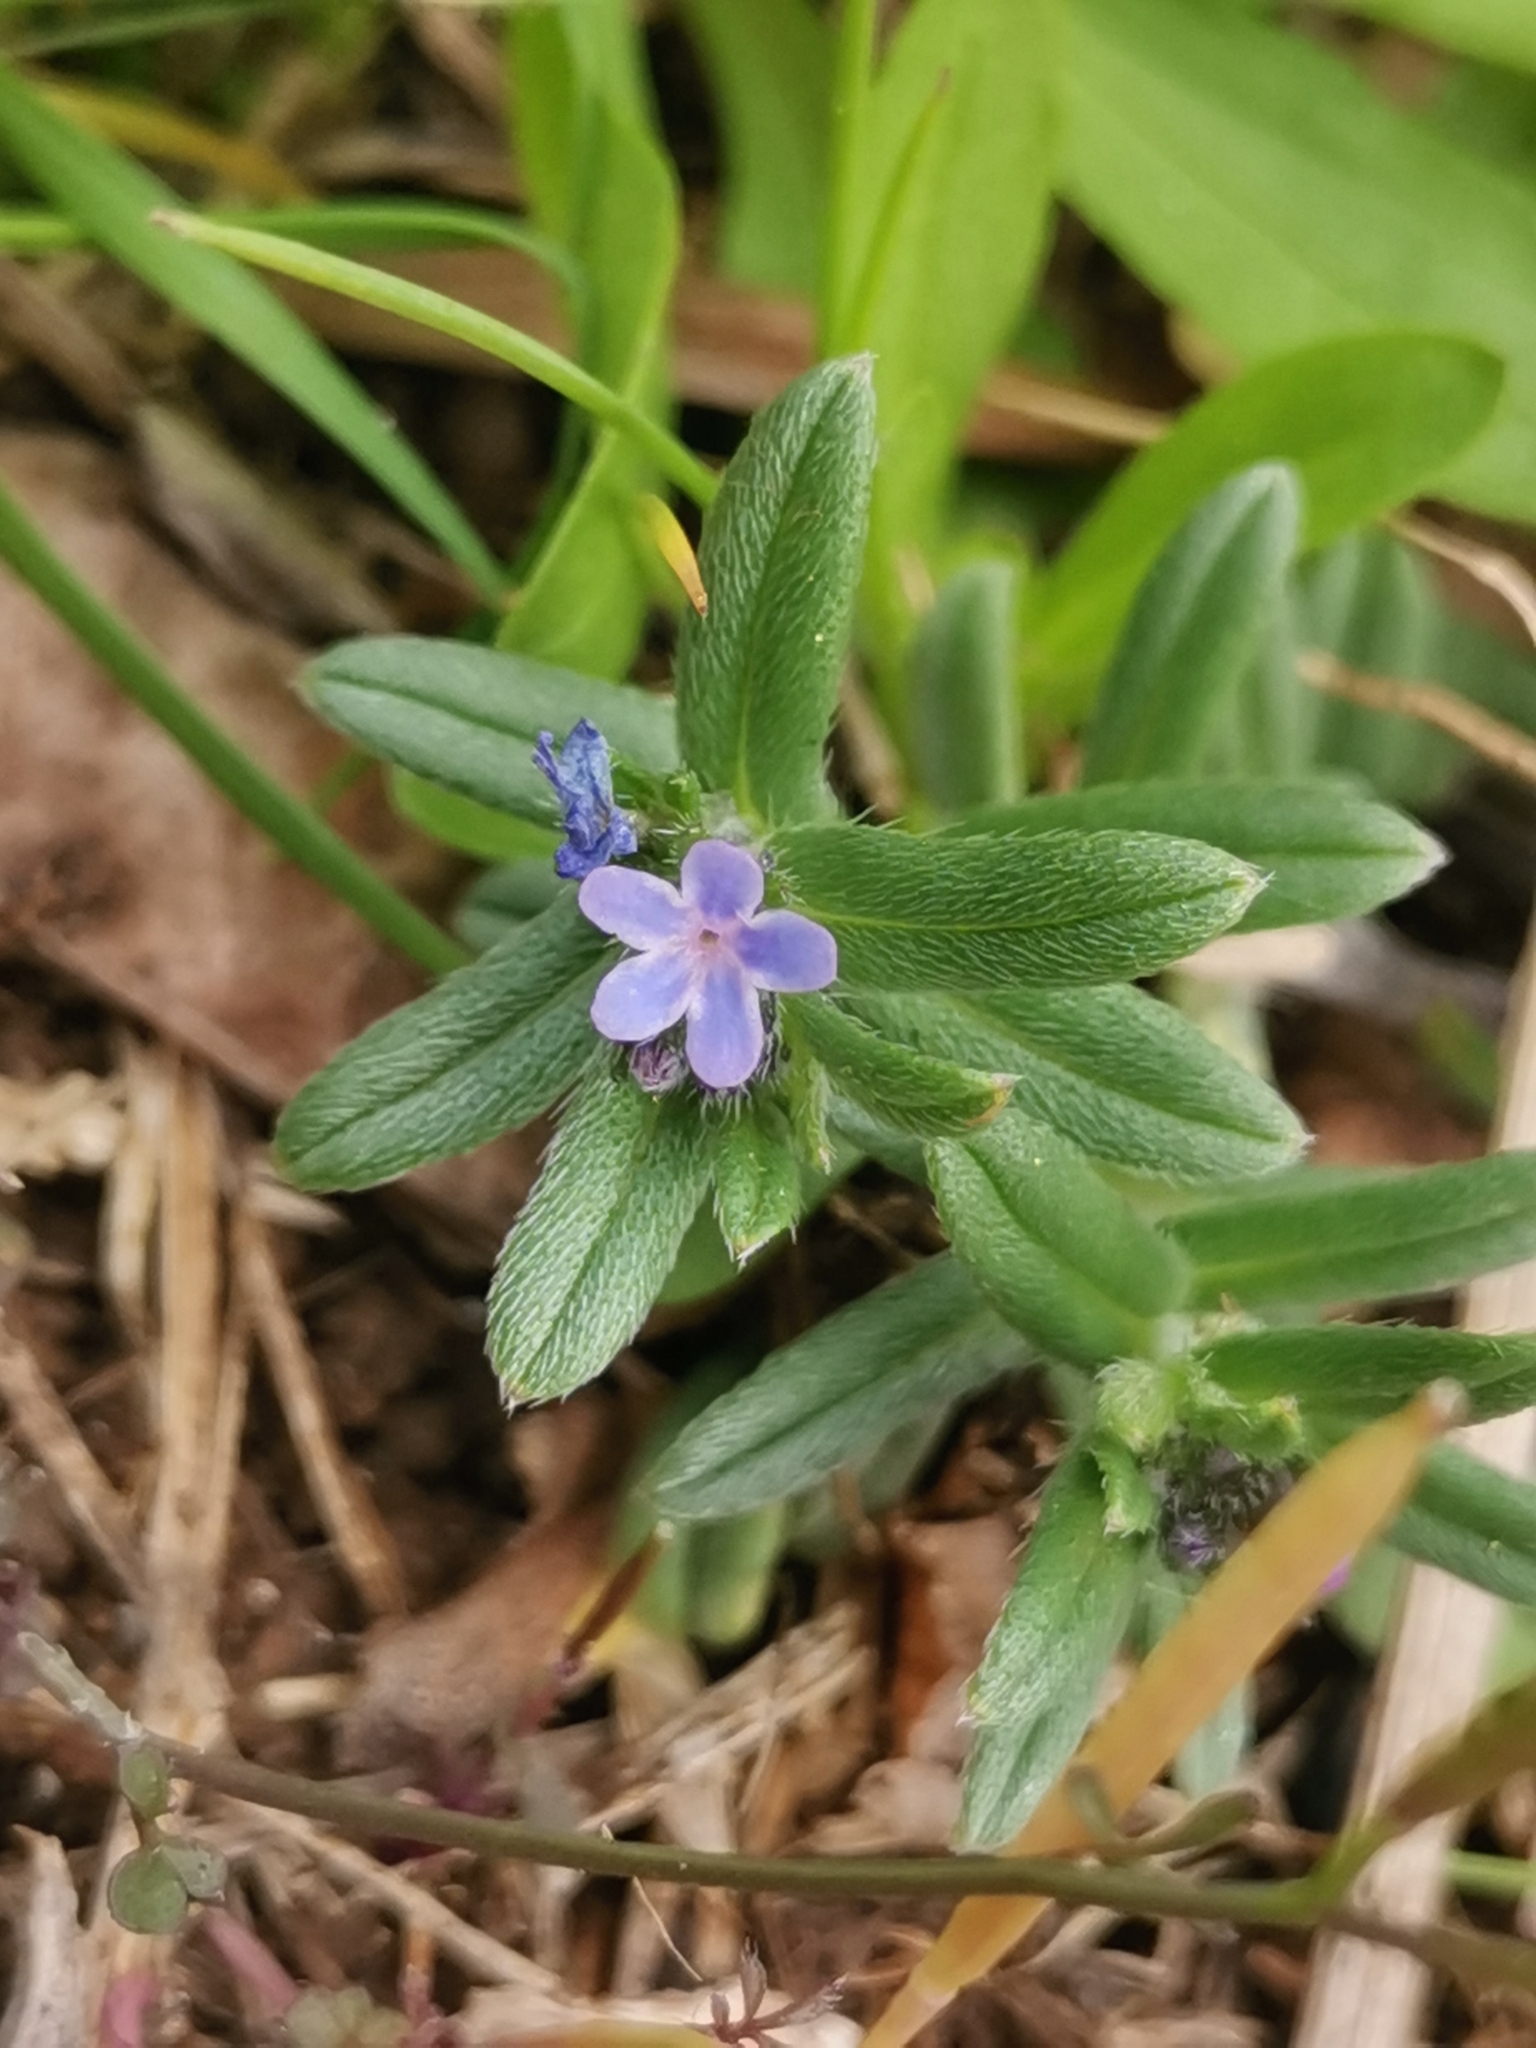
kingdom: Plantae
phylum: Tracheophyta
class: Magnoliopsida
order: Boraginales
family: Boraginaceae
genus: Buglossoides
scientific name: Buglossoides incrassata
